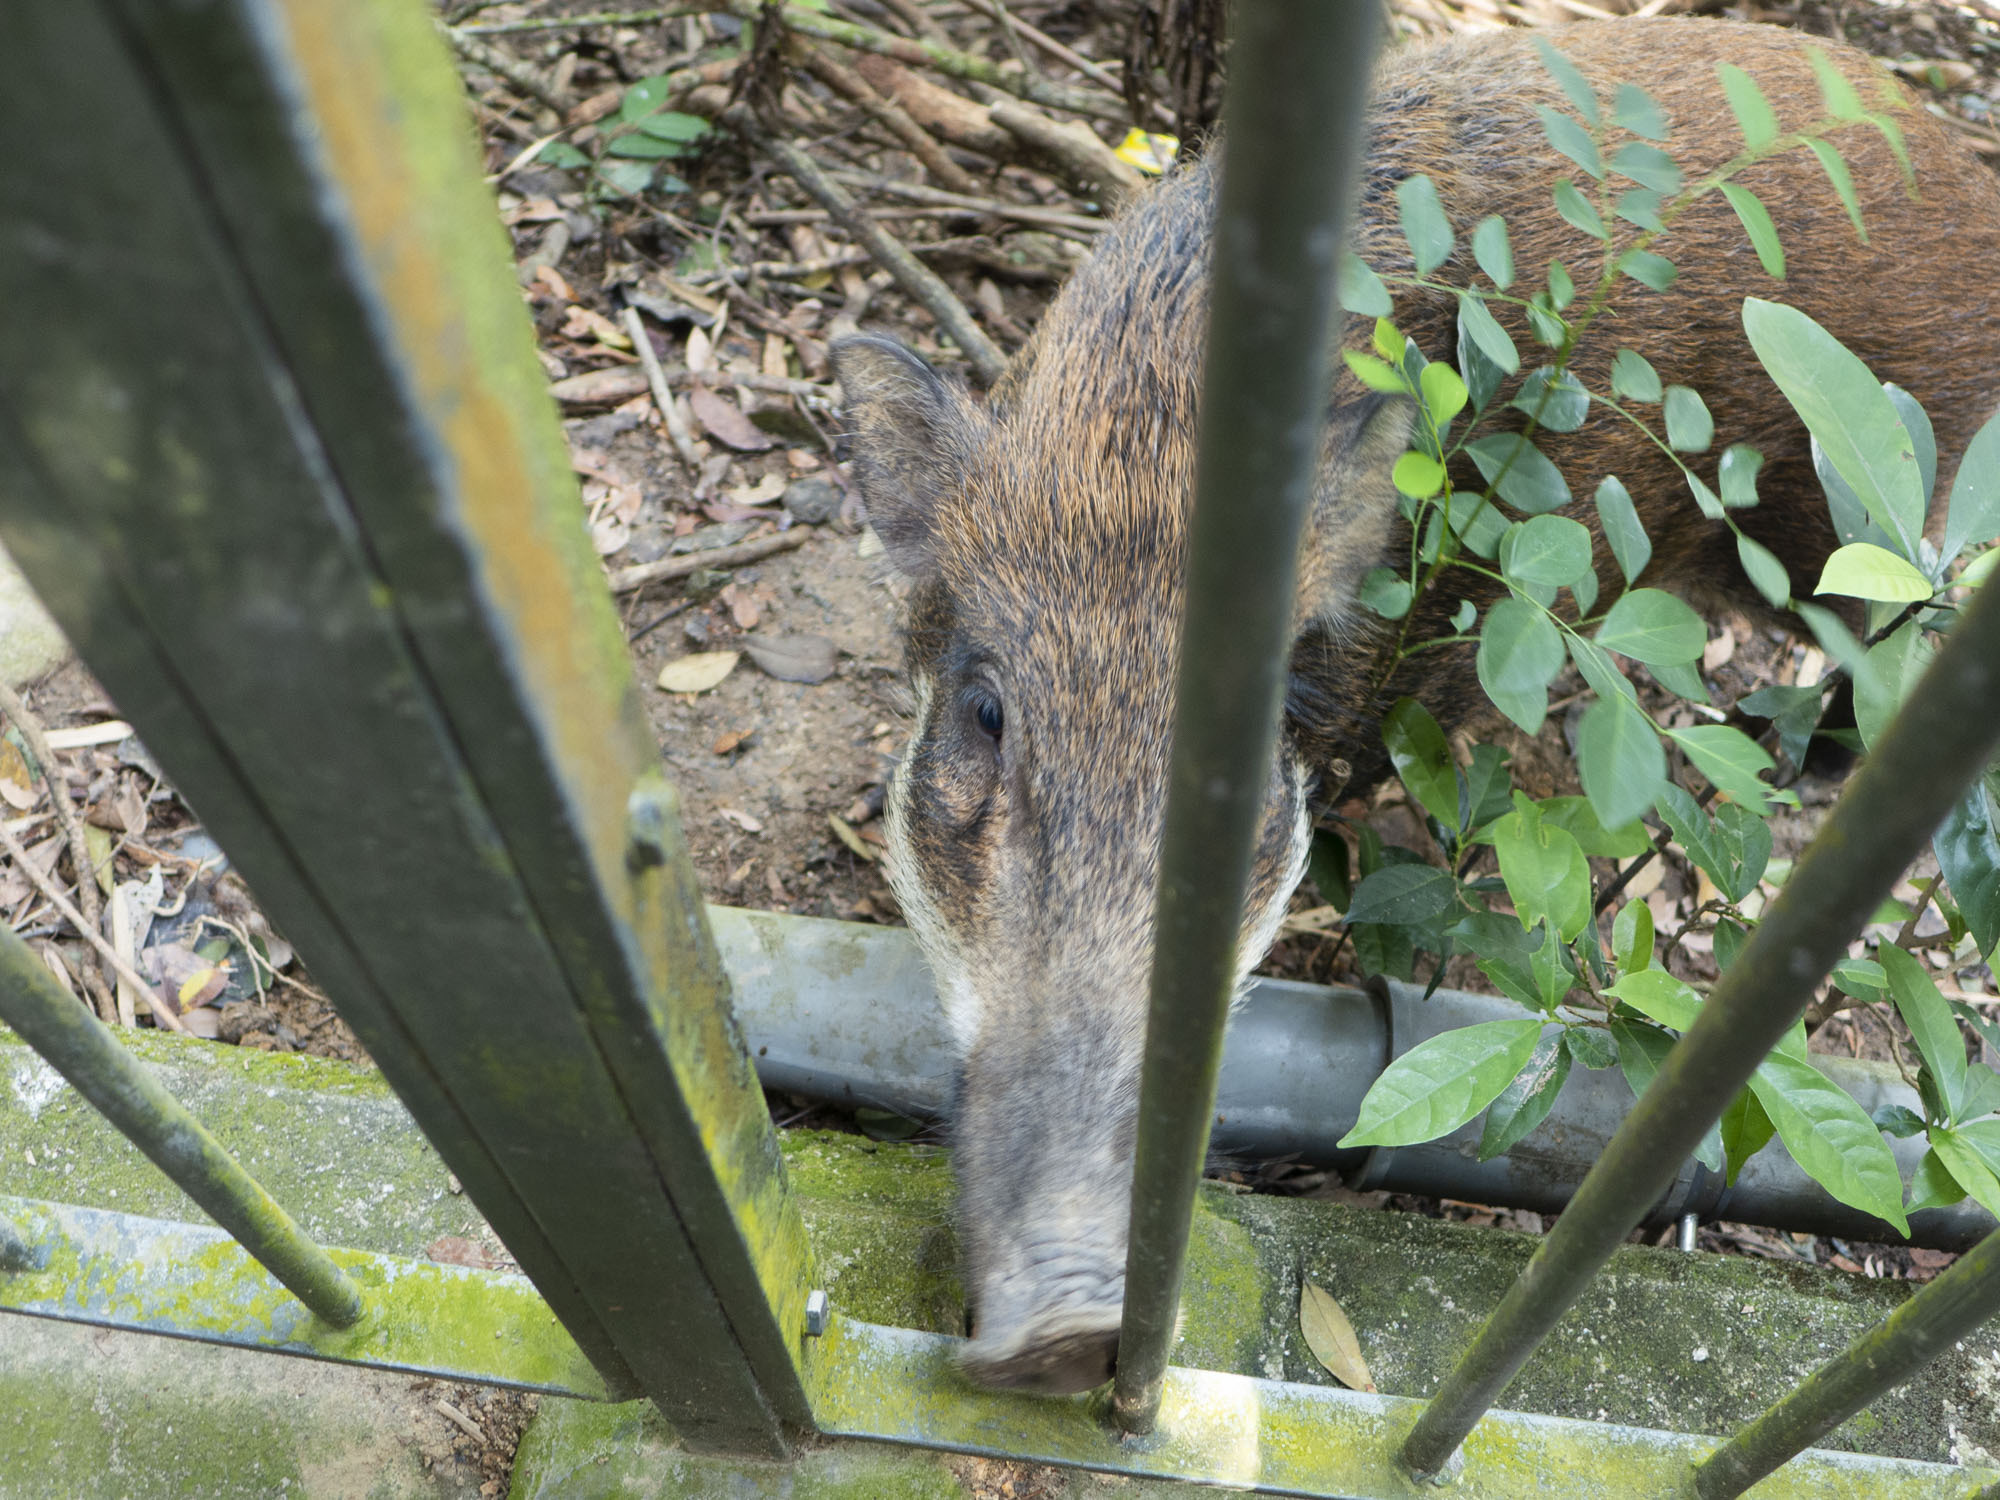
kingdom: Animalia
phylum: Chordata
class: Mammalia
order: Artiodactyla
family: Suidae
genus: Sus
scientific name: Sus scrofa
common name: Wild boar
